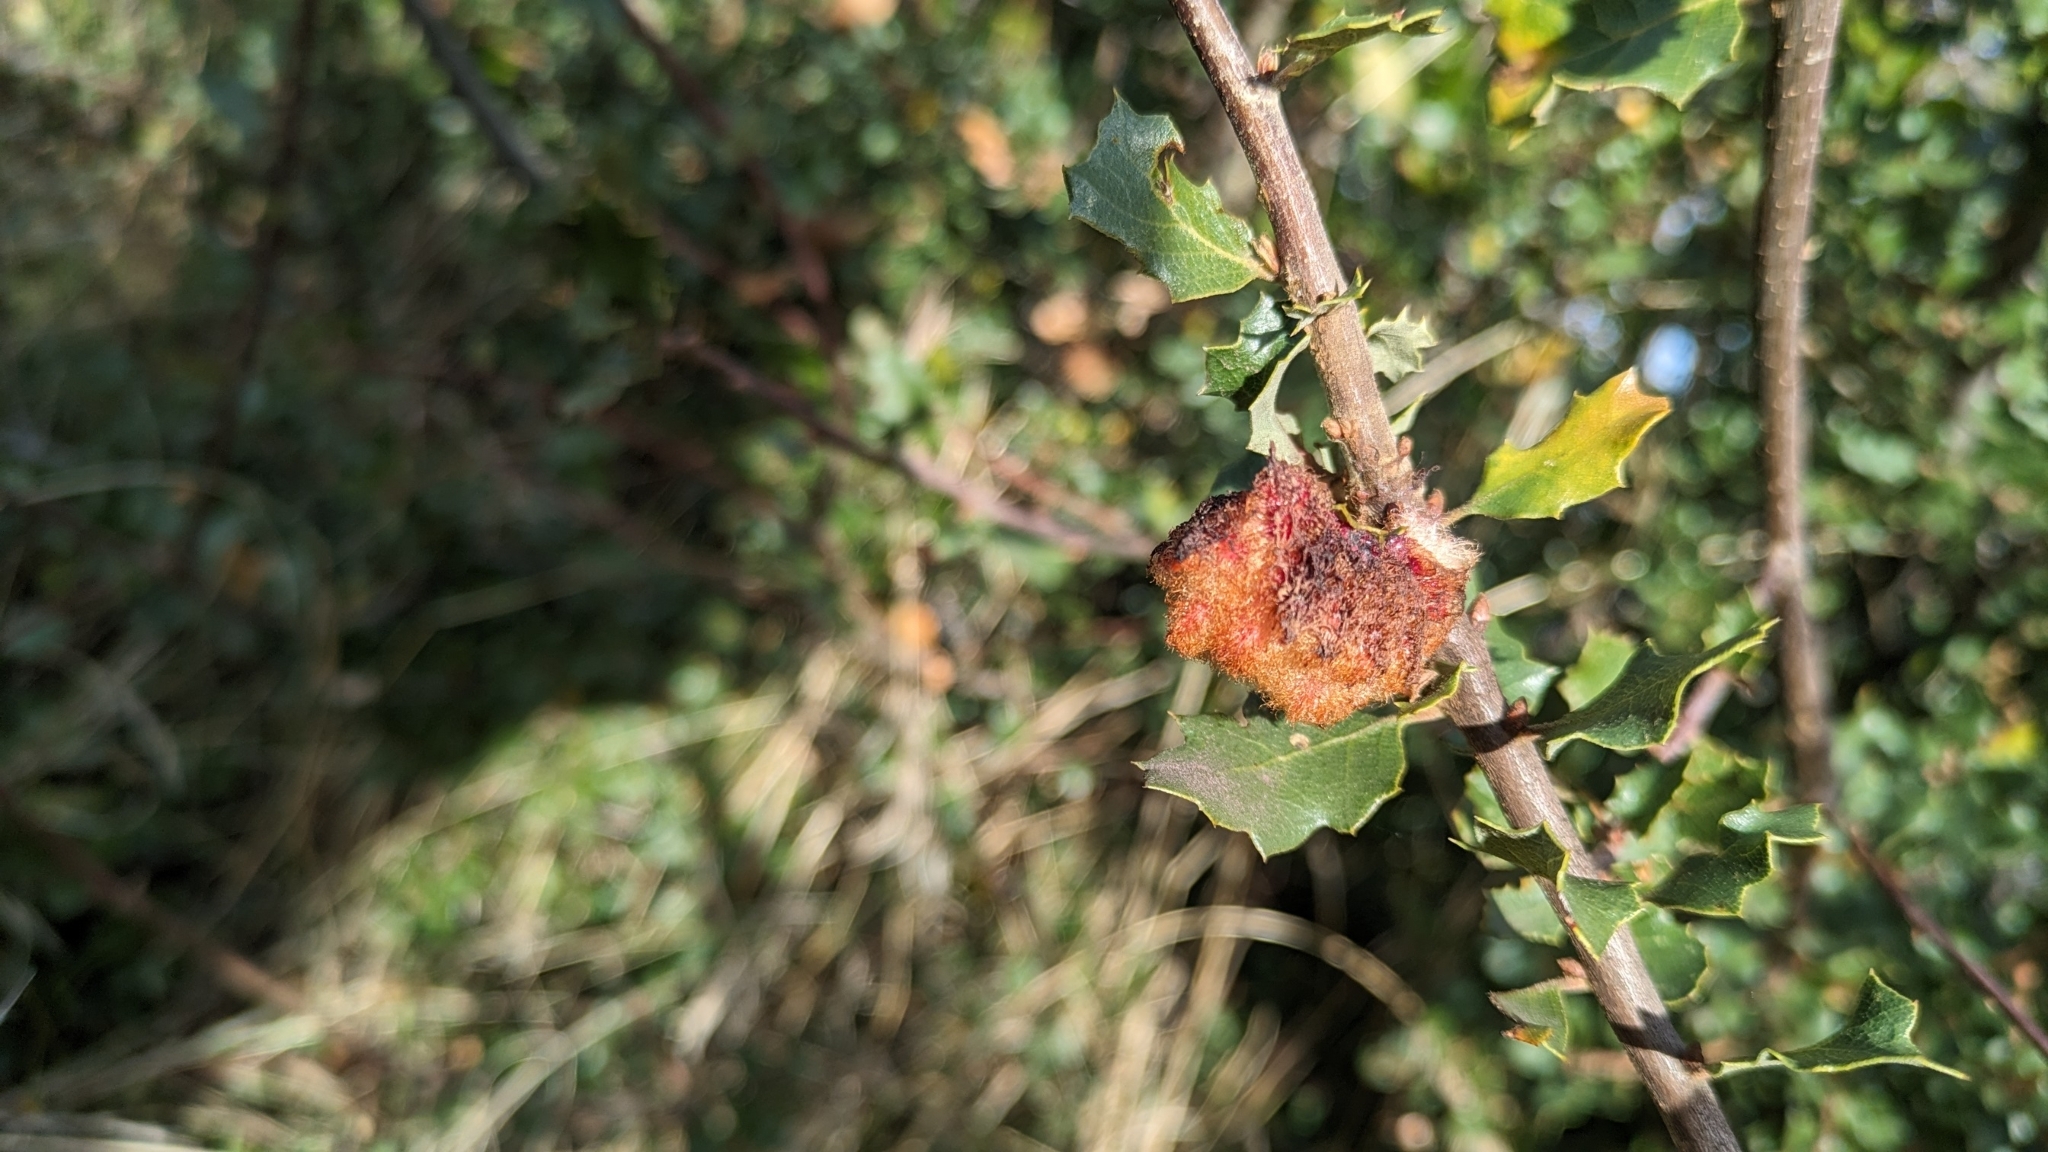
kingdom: Animalia
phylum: Arthropoda
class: Insecta
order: Hymenoptera
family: Cynipidae
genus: Andricus
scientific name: Andricus
